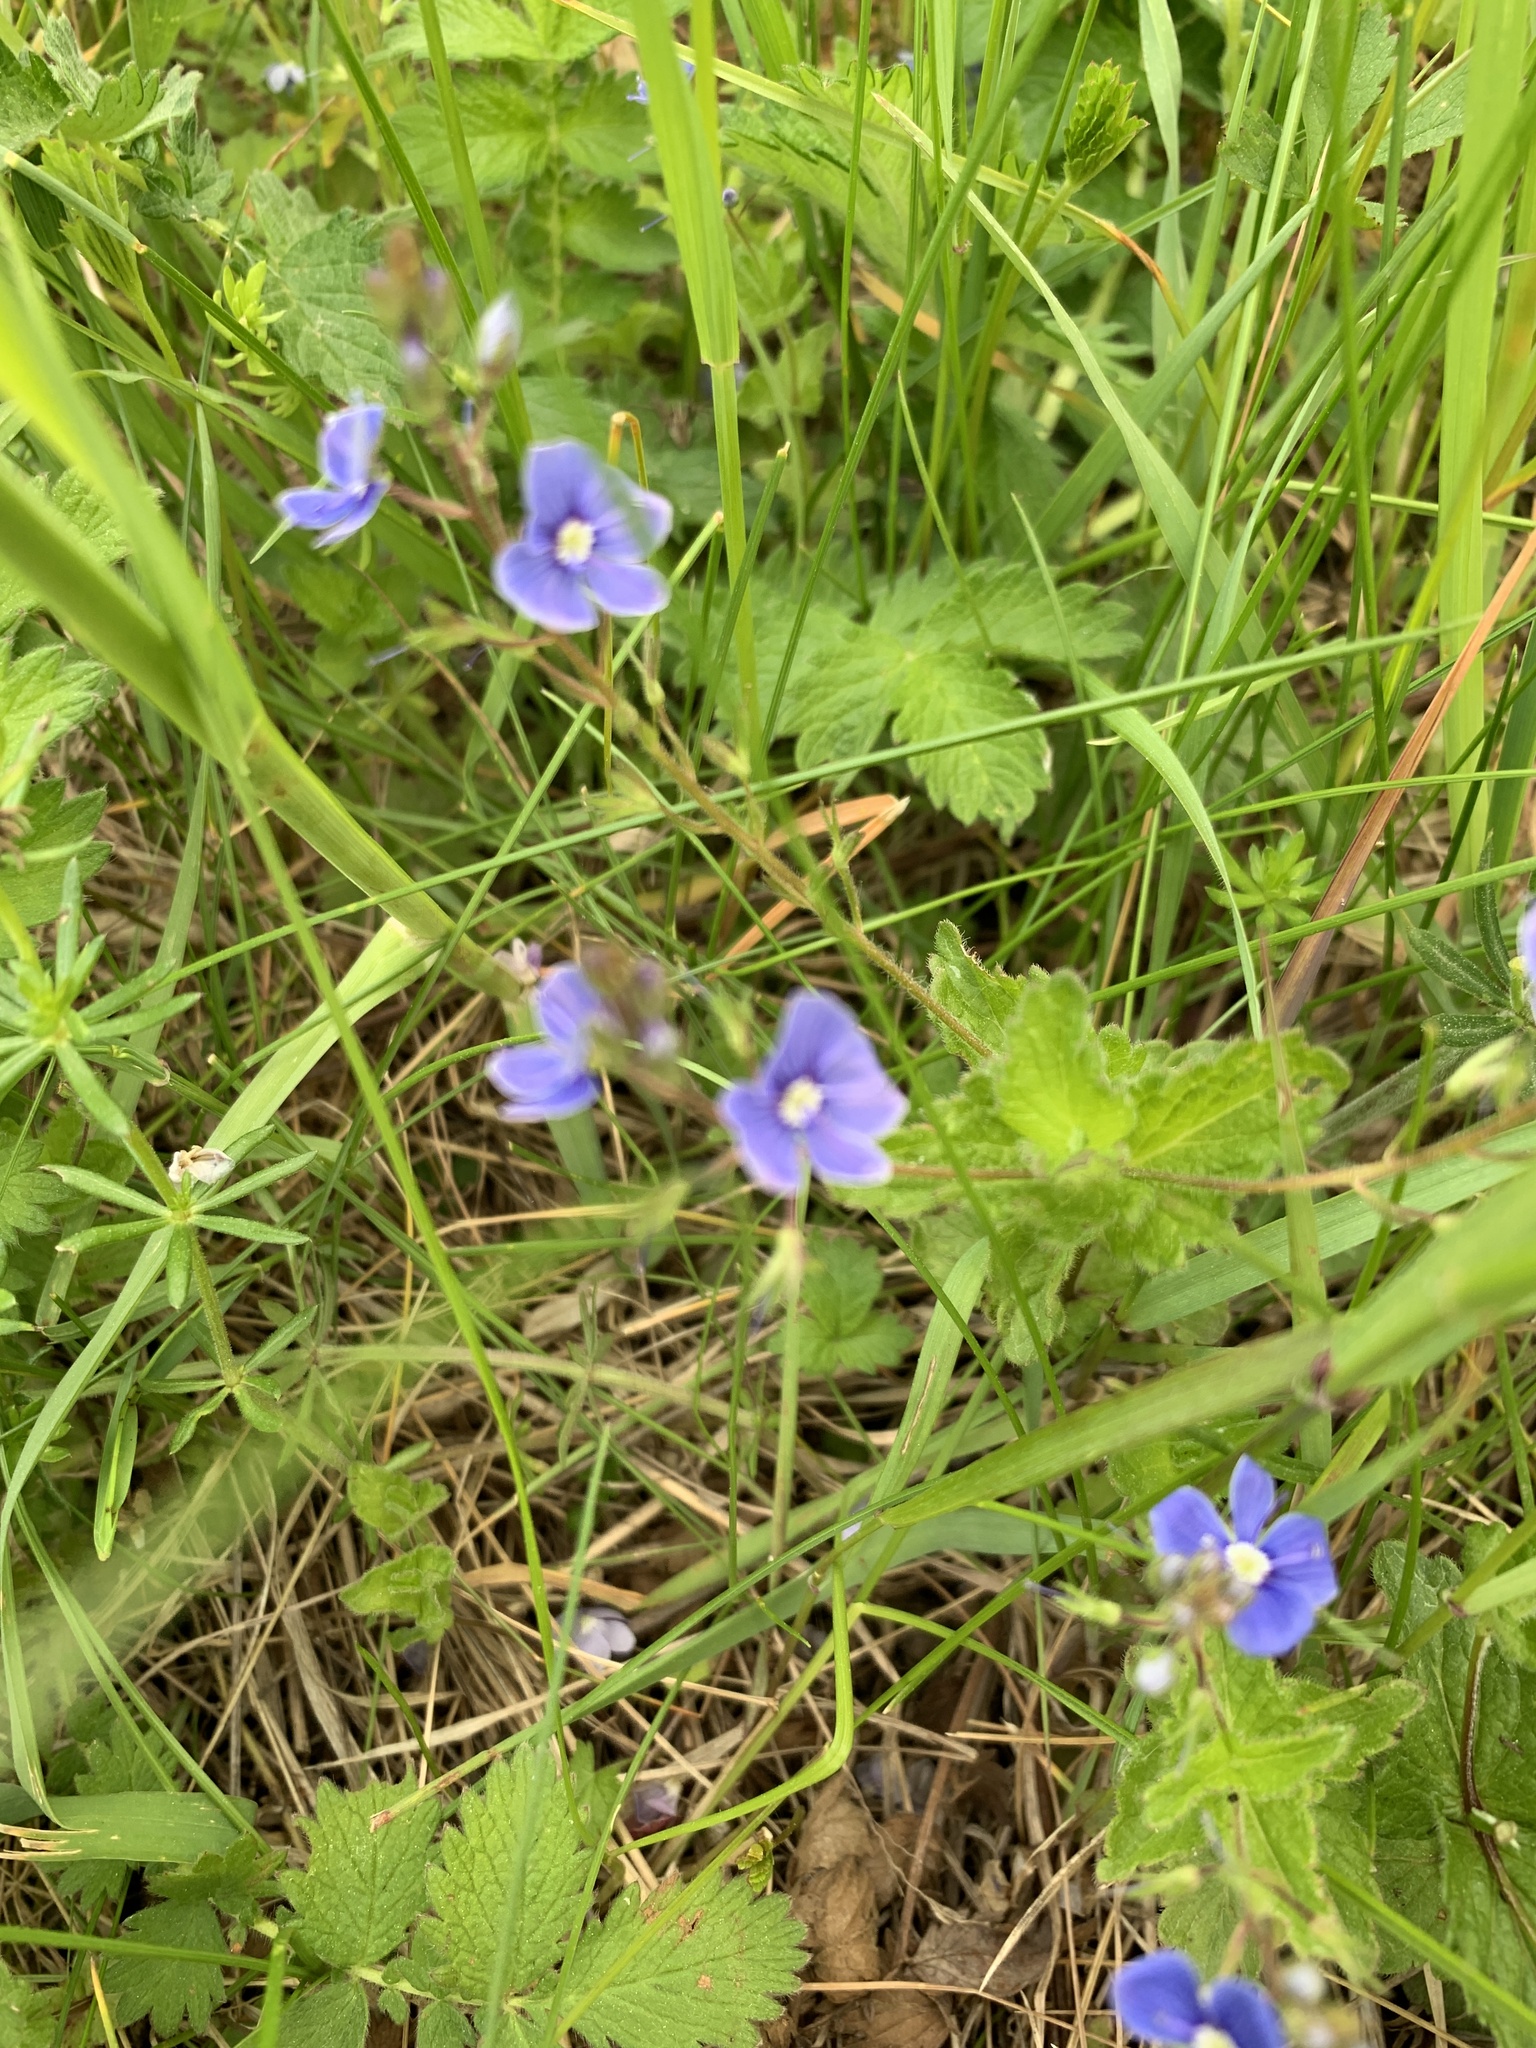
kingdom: Plantae
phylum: Tracheophyta
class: Magnoliopsida
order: Lamiales
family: Plantaginaceae
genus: Veronica
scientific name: Veronica chamaedrys
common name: Germander speedwell
